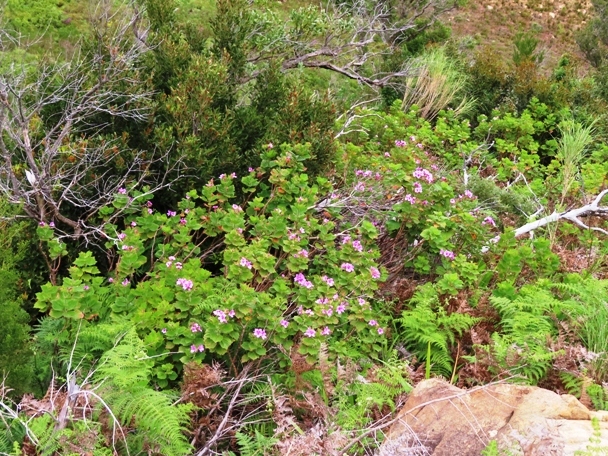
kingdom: Plantae
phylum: Tracheophyta
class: Magnoliopsida
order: Geraniales
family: Geraniaceae
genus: Pelargonium
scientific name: Pelargonium cucullatum
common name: Tree pelargonium
